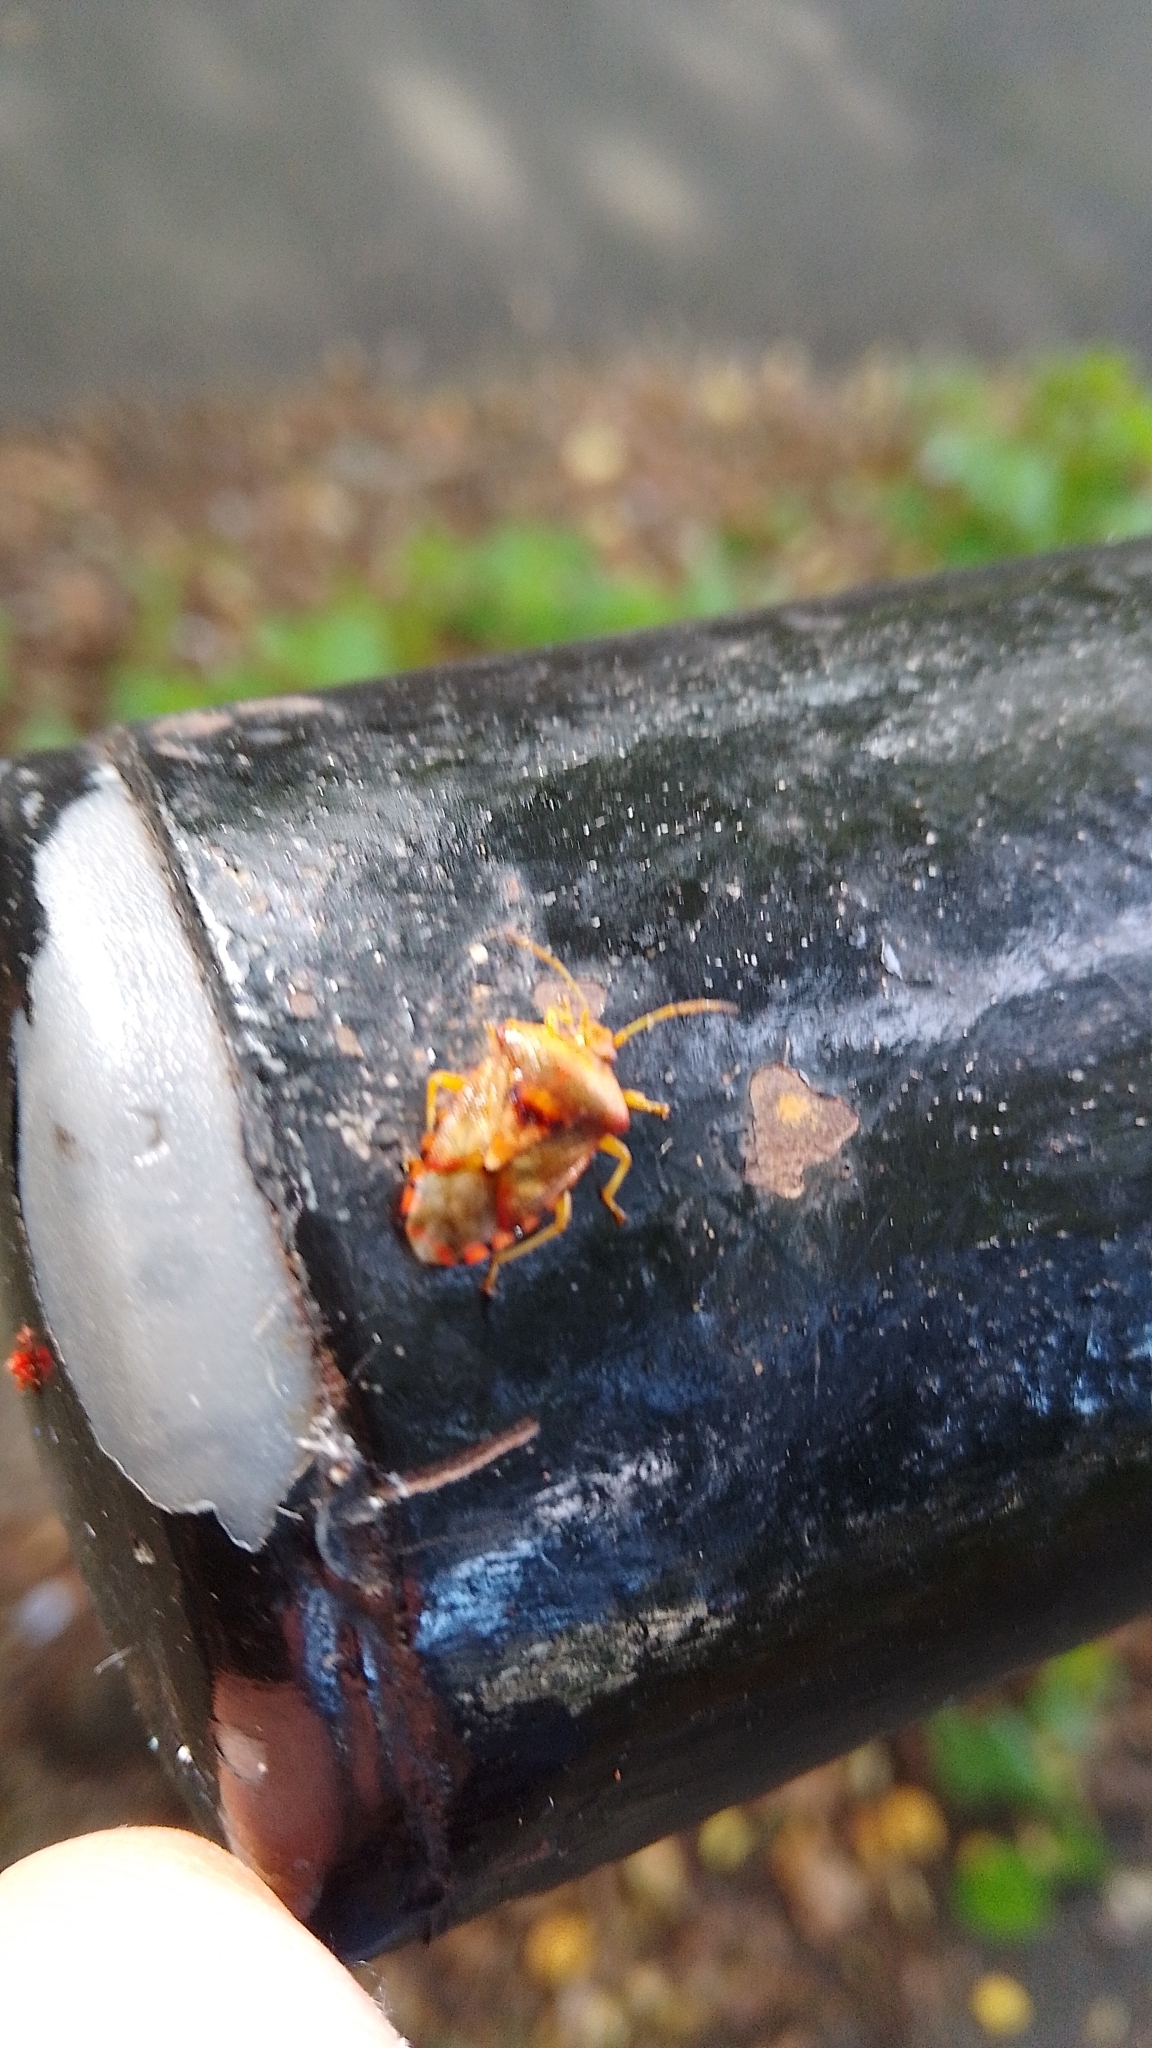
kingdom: Animalia
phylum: Arthropoda
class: Insecta
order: Hemiptera
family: Acanthosomatidae
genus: Elasmucha
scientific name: Elasmucha grisea
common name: Parent bug
